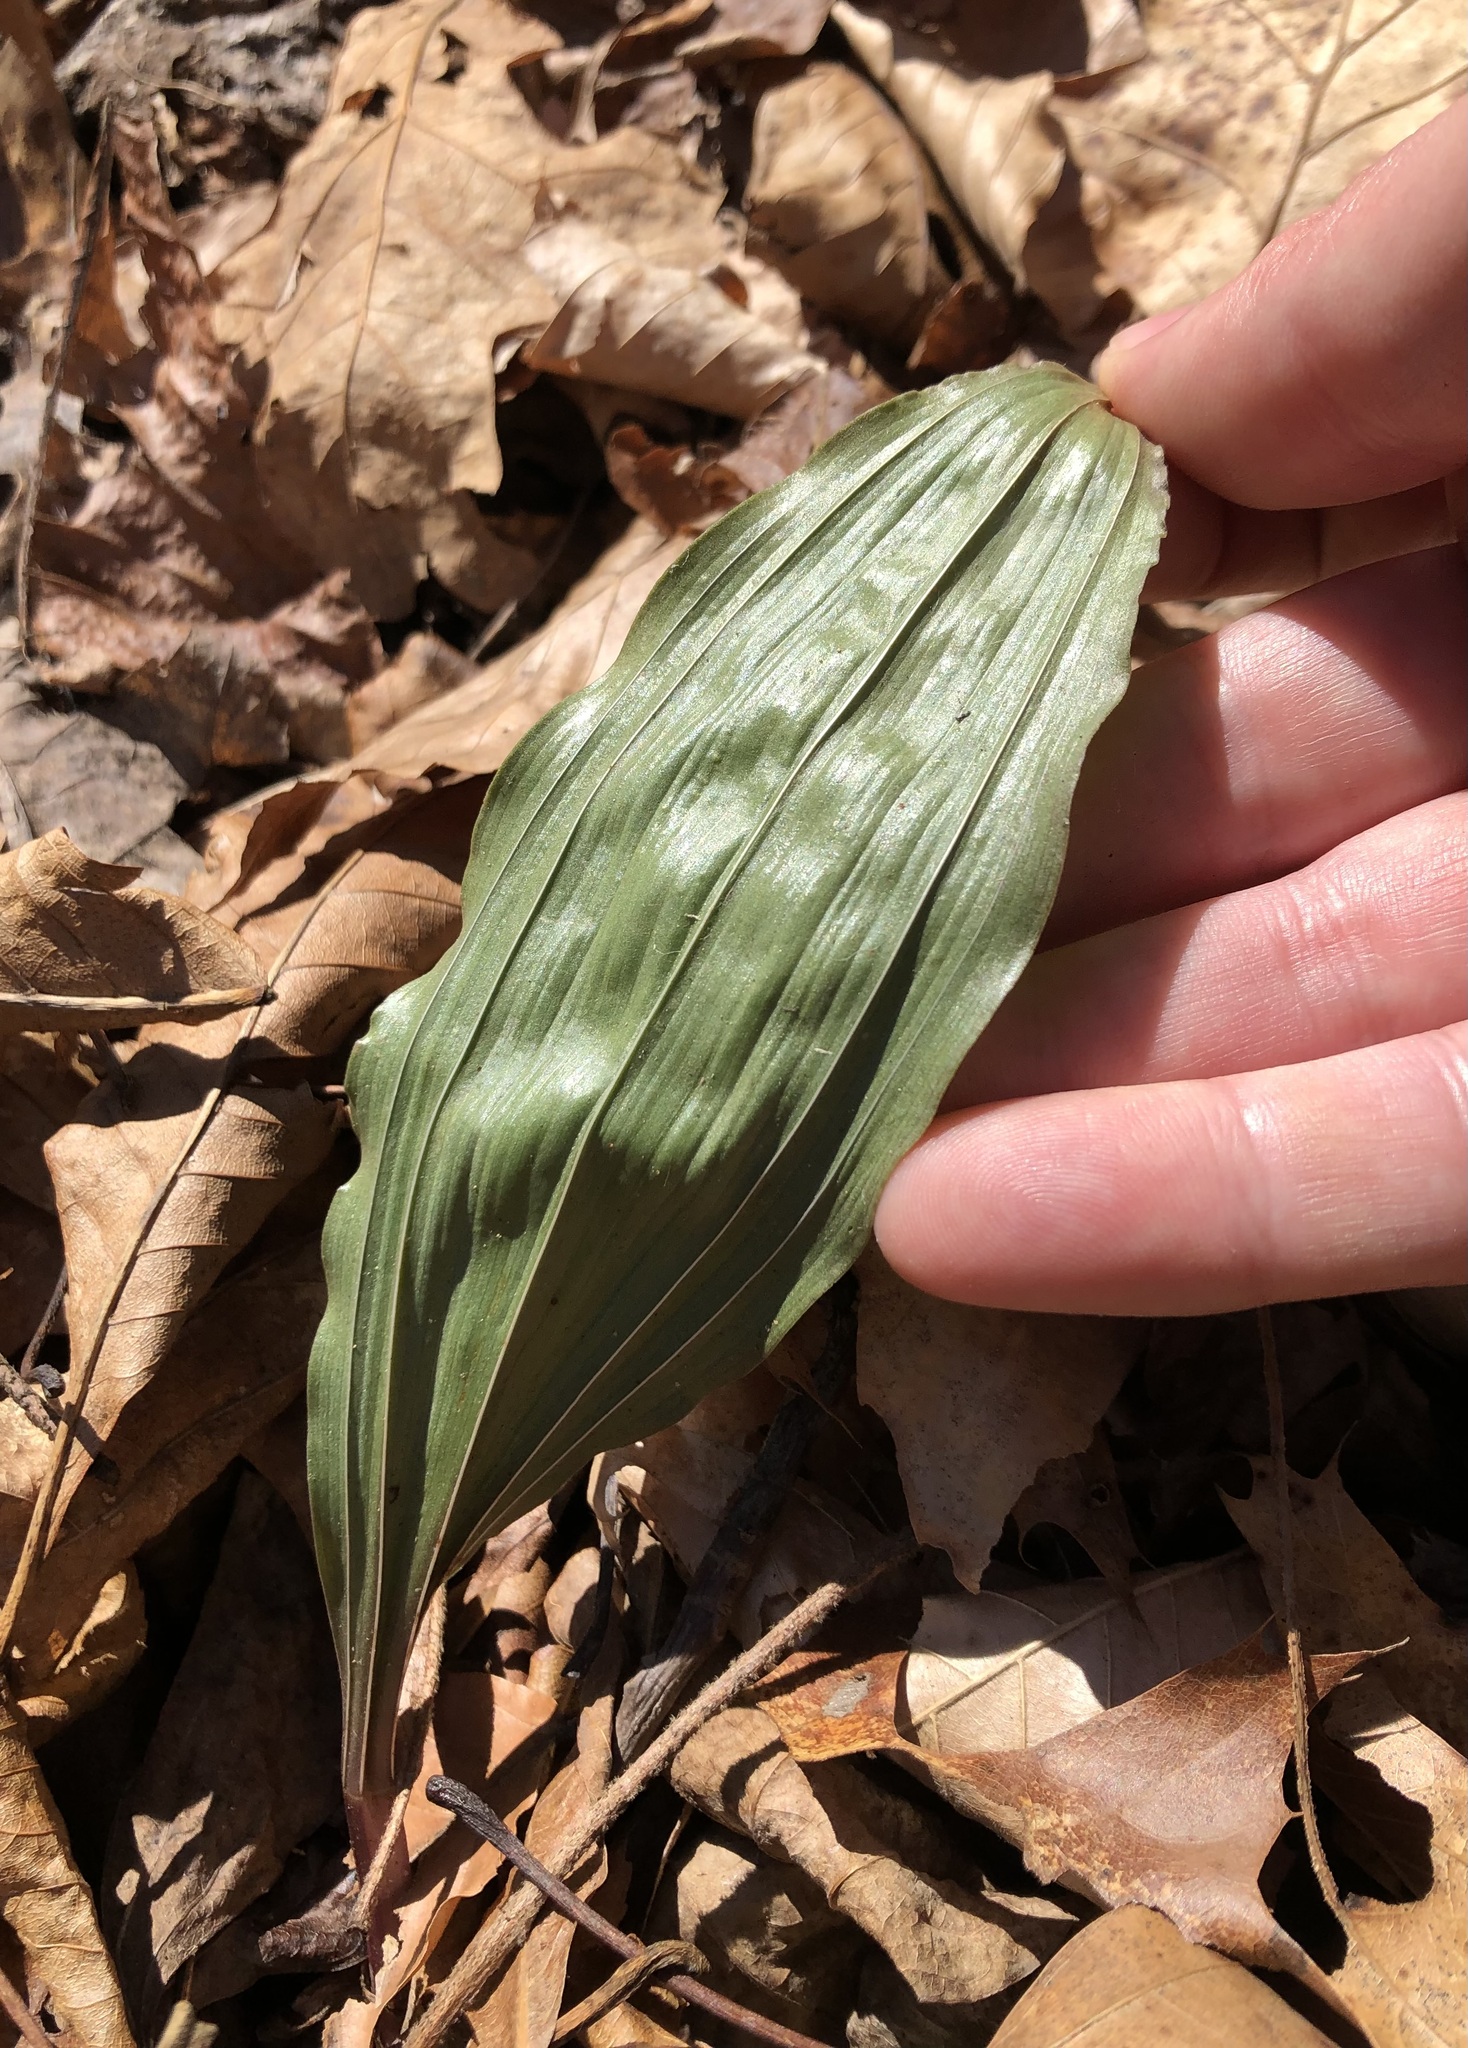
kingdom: Plantae
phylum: Tracheophyta
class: Liliopsida
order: Asparagales
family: Orchidaceae
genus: Aplectrum
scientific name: Aplectrum hyemale
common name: Adam-and-eve
